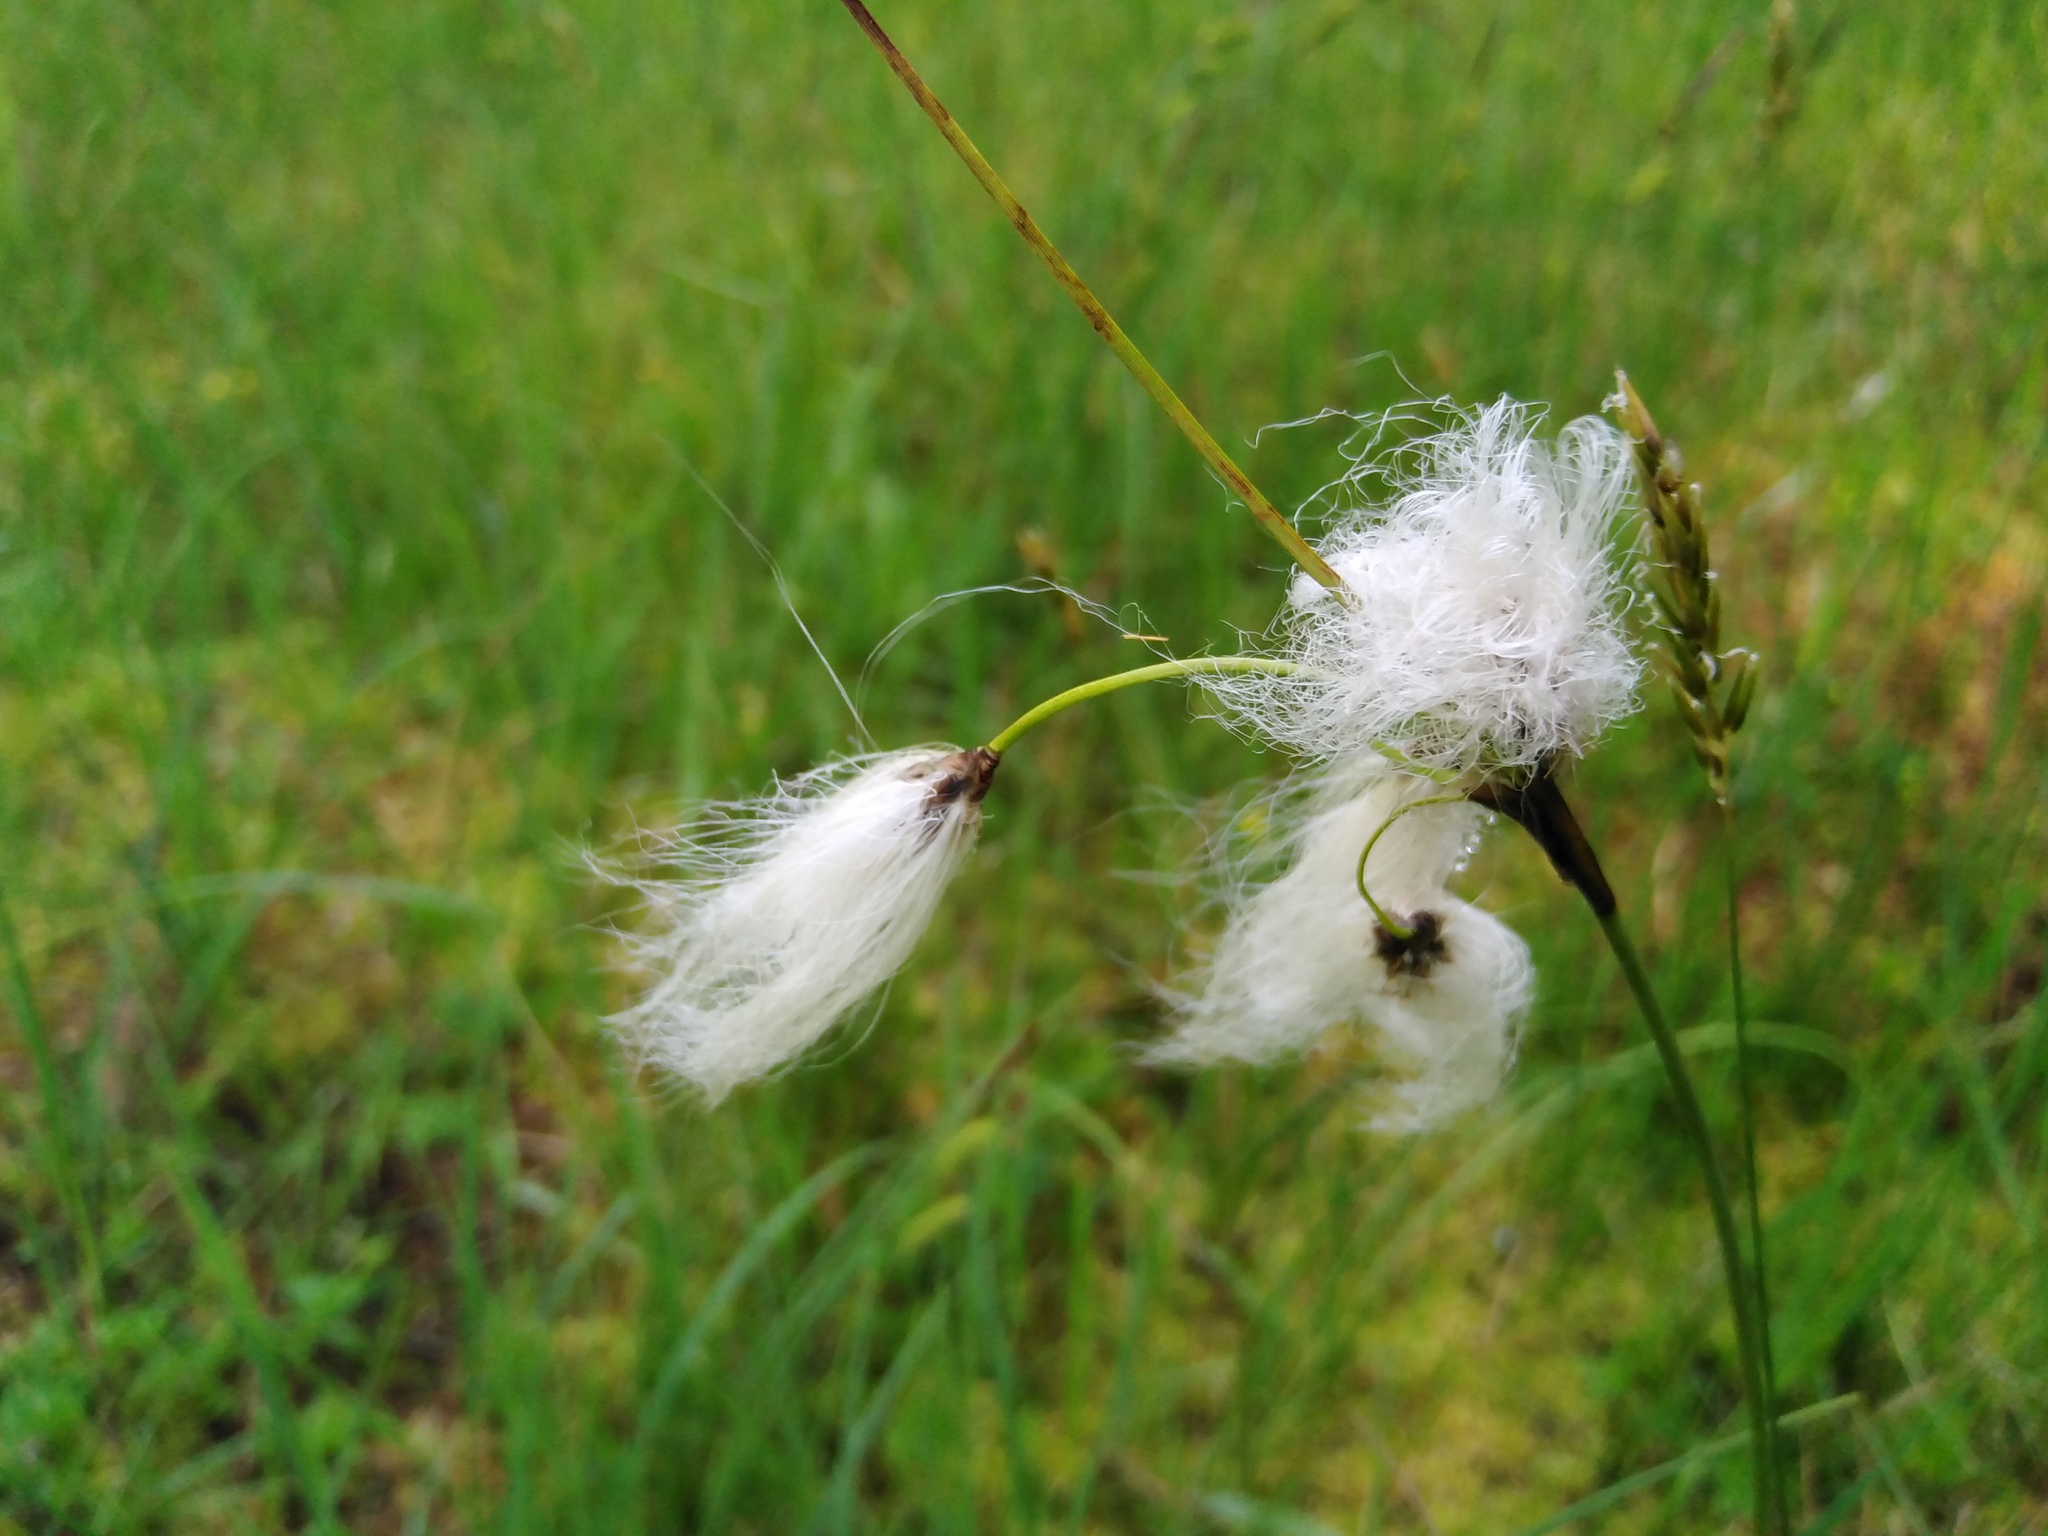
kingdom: Plantae
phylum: Tracheophyta
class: Liliopsida
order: Poales
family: Cyperaceae
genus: Eriophorum
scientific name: Eriophorum angustifolium
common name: Common cottongrass
